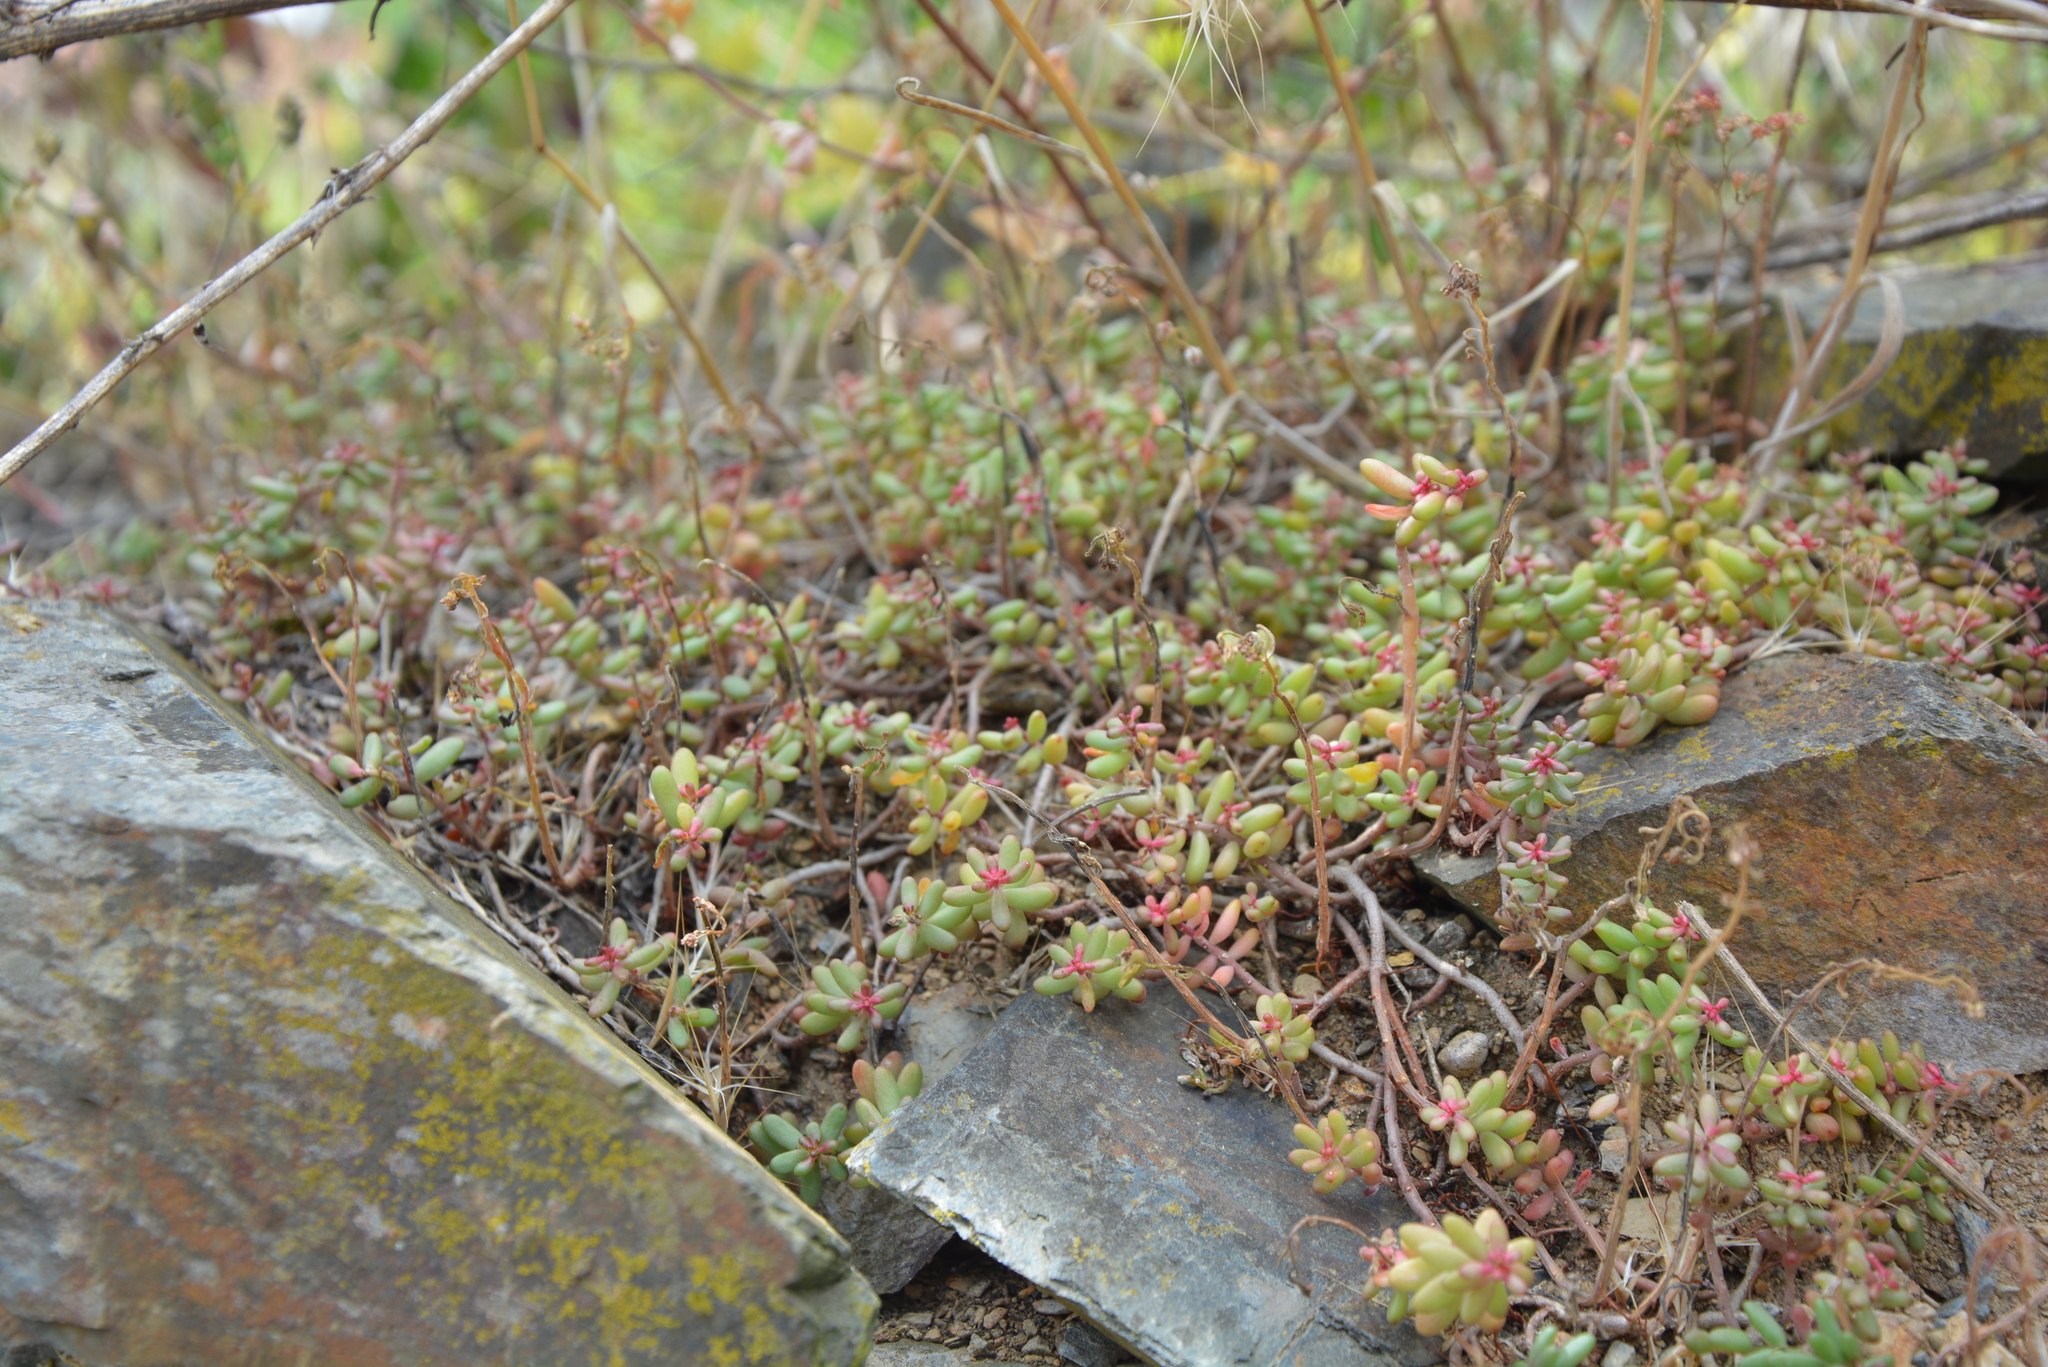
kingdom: Plantae
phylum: Tracheophyta
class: Magnoliopsida
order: Saxifragales
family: Crassulaceae
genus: Sedum
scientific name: Sedum album
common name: White stonecrop
